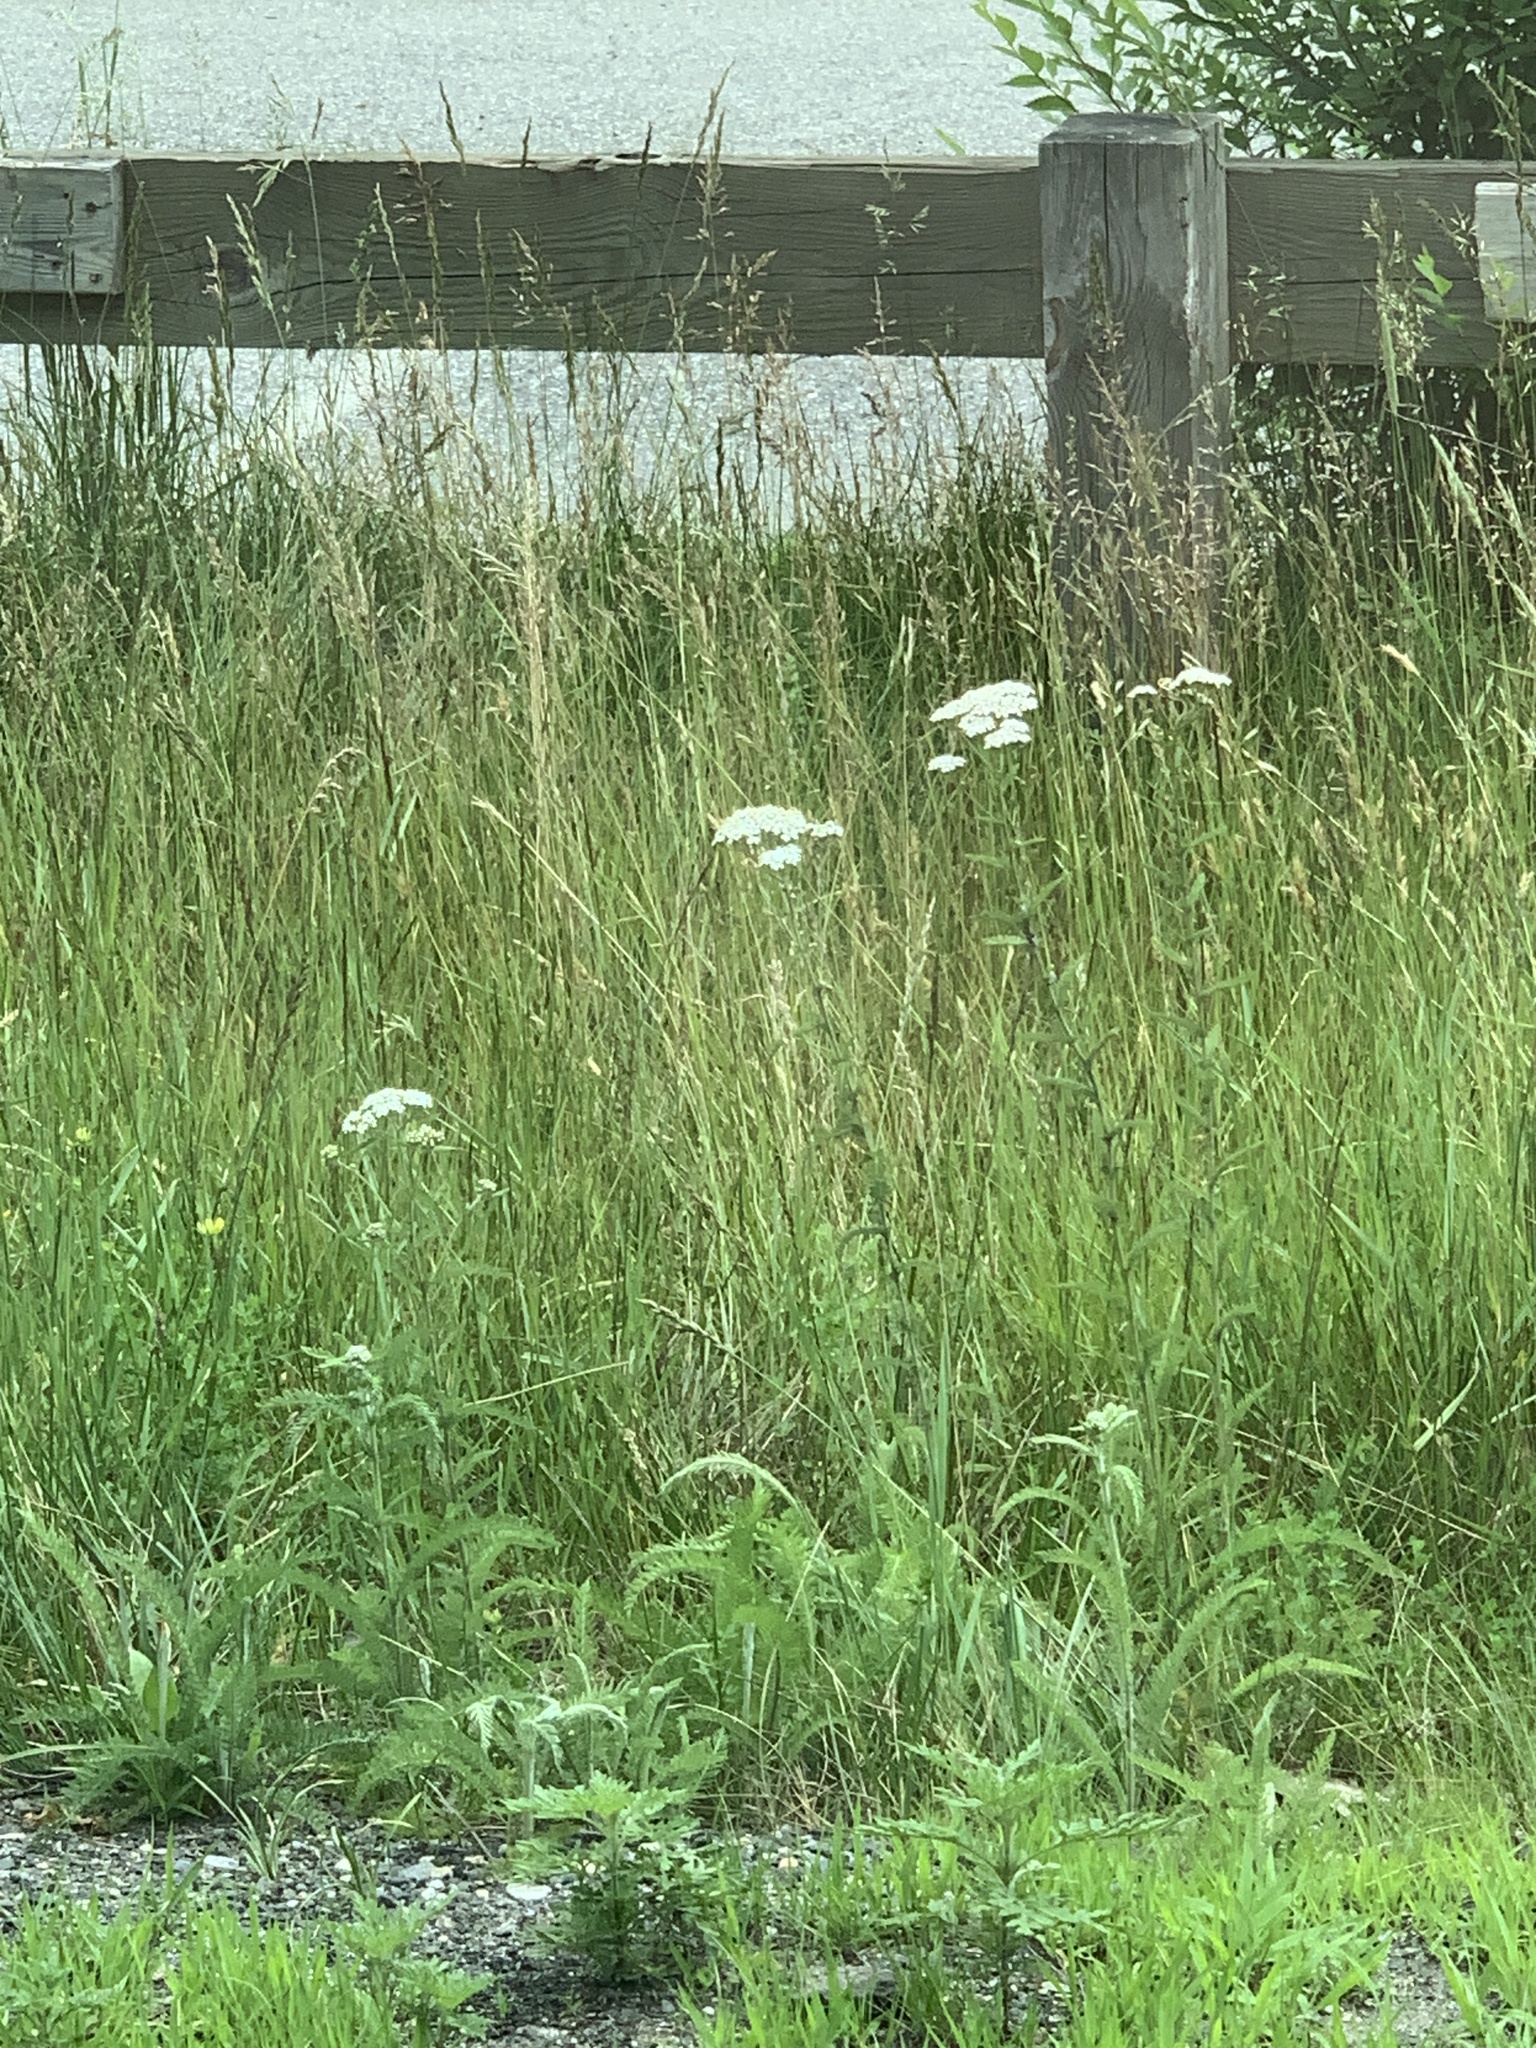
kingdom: Plantae
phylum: Tracheophyta
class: Magnoliopsida
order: Asterales
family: Asteraceae
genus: Achillea
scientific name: Achillea millefolium
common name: Yarrow
